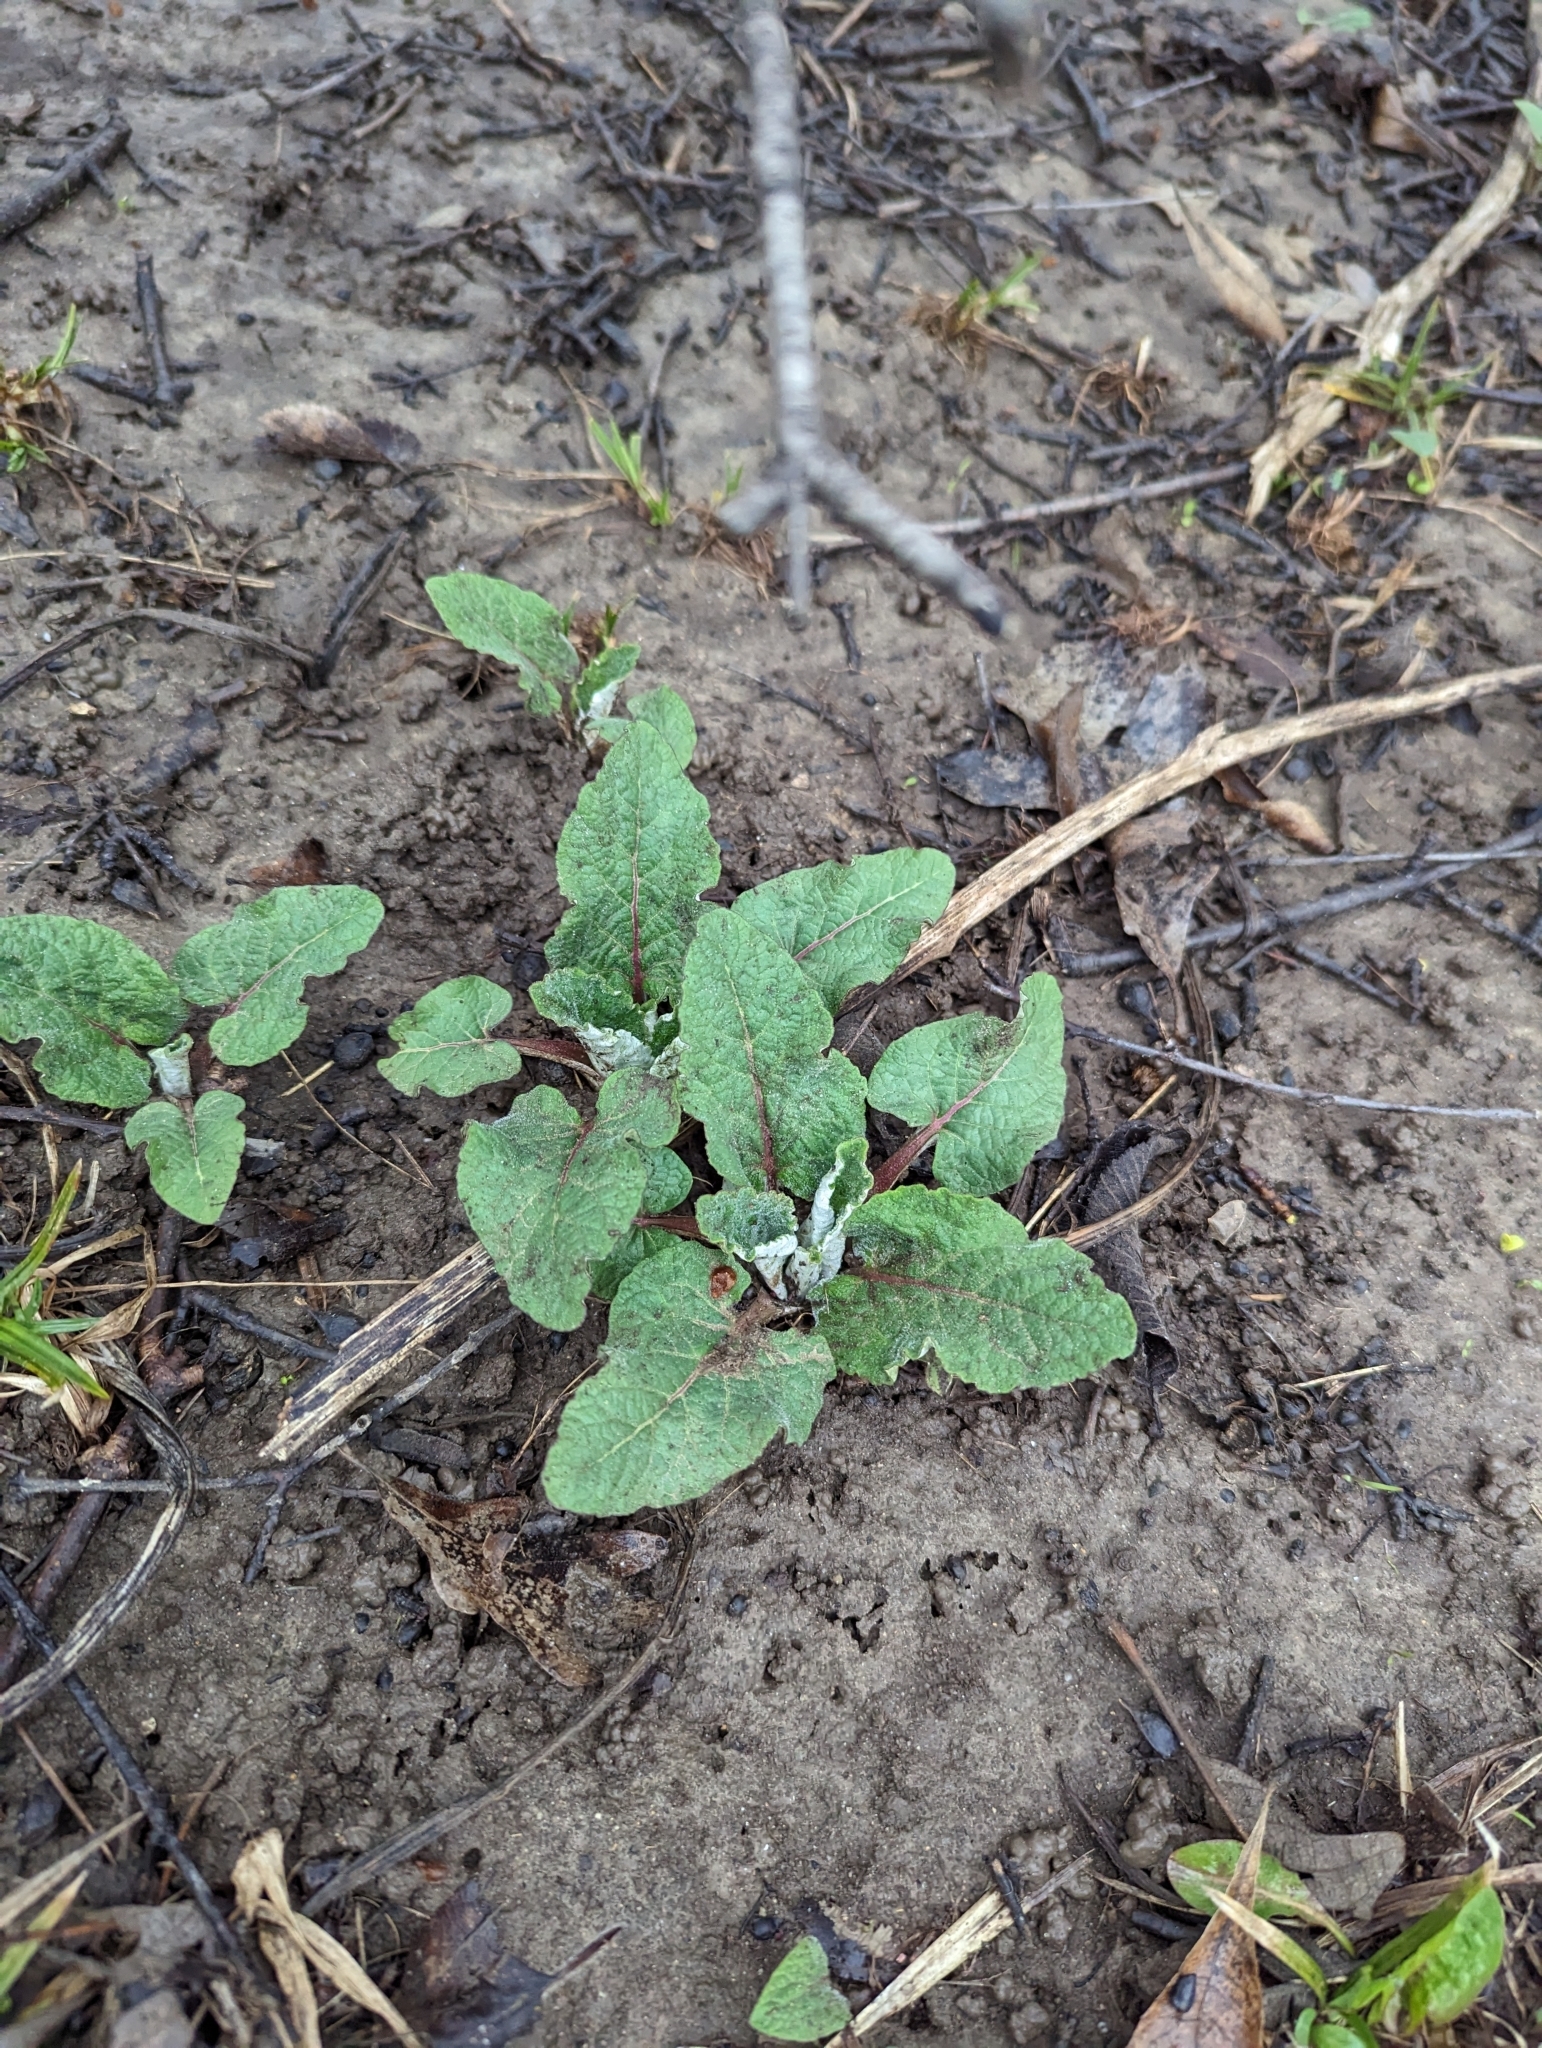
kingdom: Plantae
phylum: Tracheophyta
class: Magnoliopsida
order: Asterales
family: Asteraceae
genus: Arctium
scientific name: Arctium
